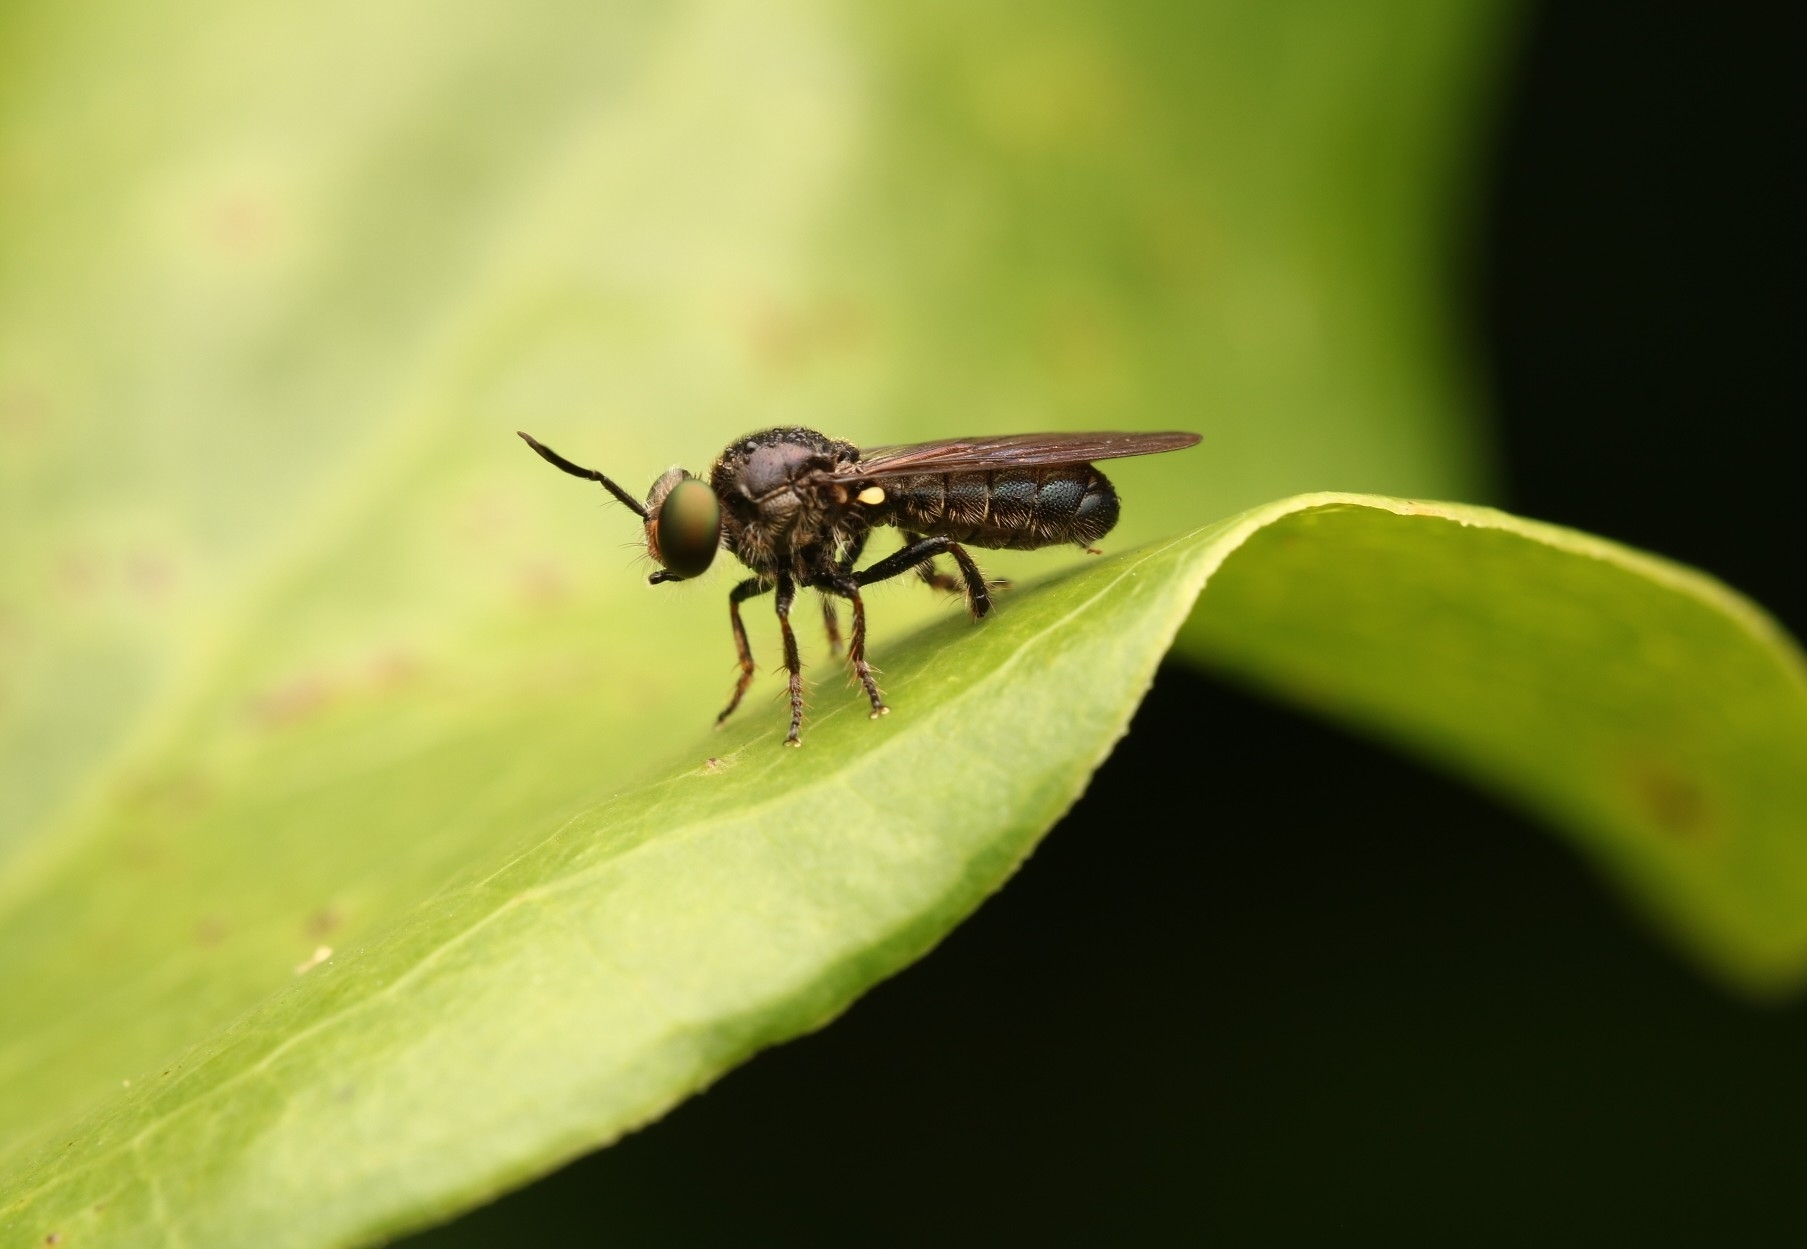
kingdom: Animalia
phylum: Arthropoda
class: Insecta
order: Diptera
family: Asilidae
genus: Cerotainia
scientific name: Cerotainia macrocera
